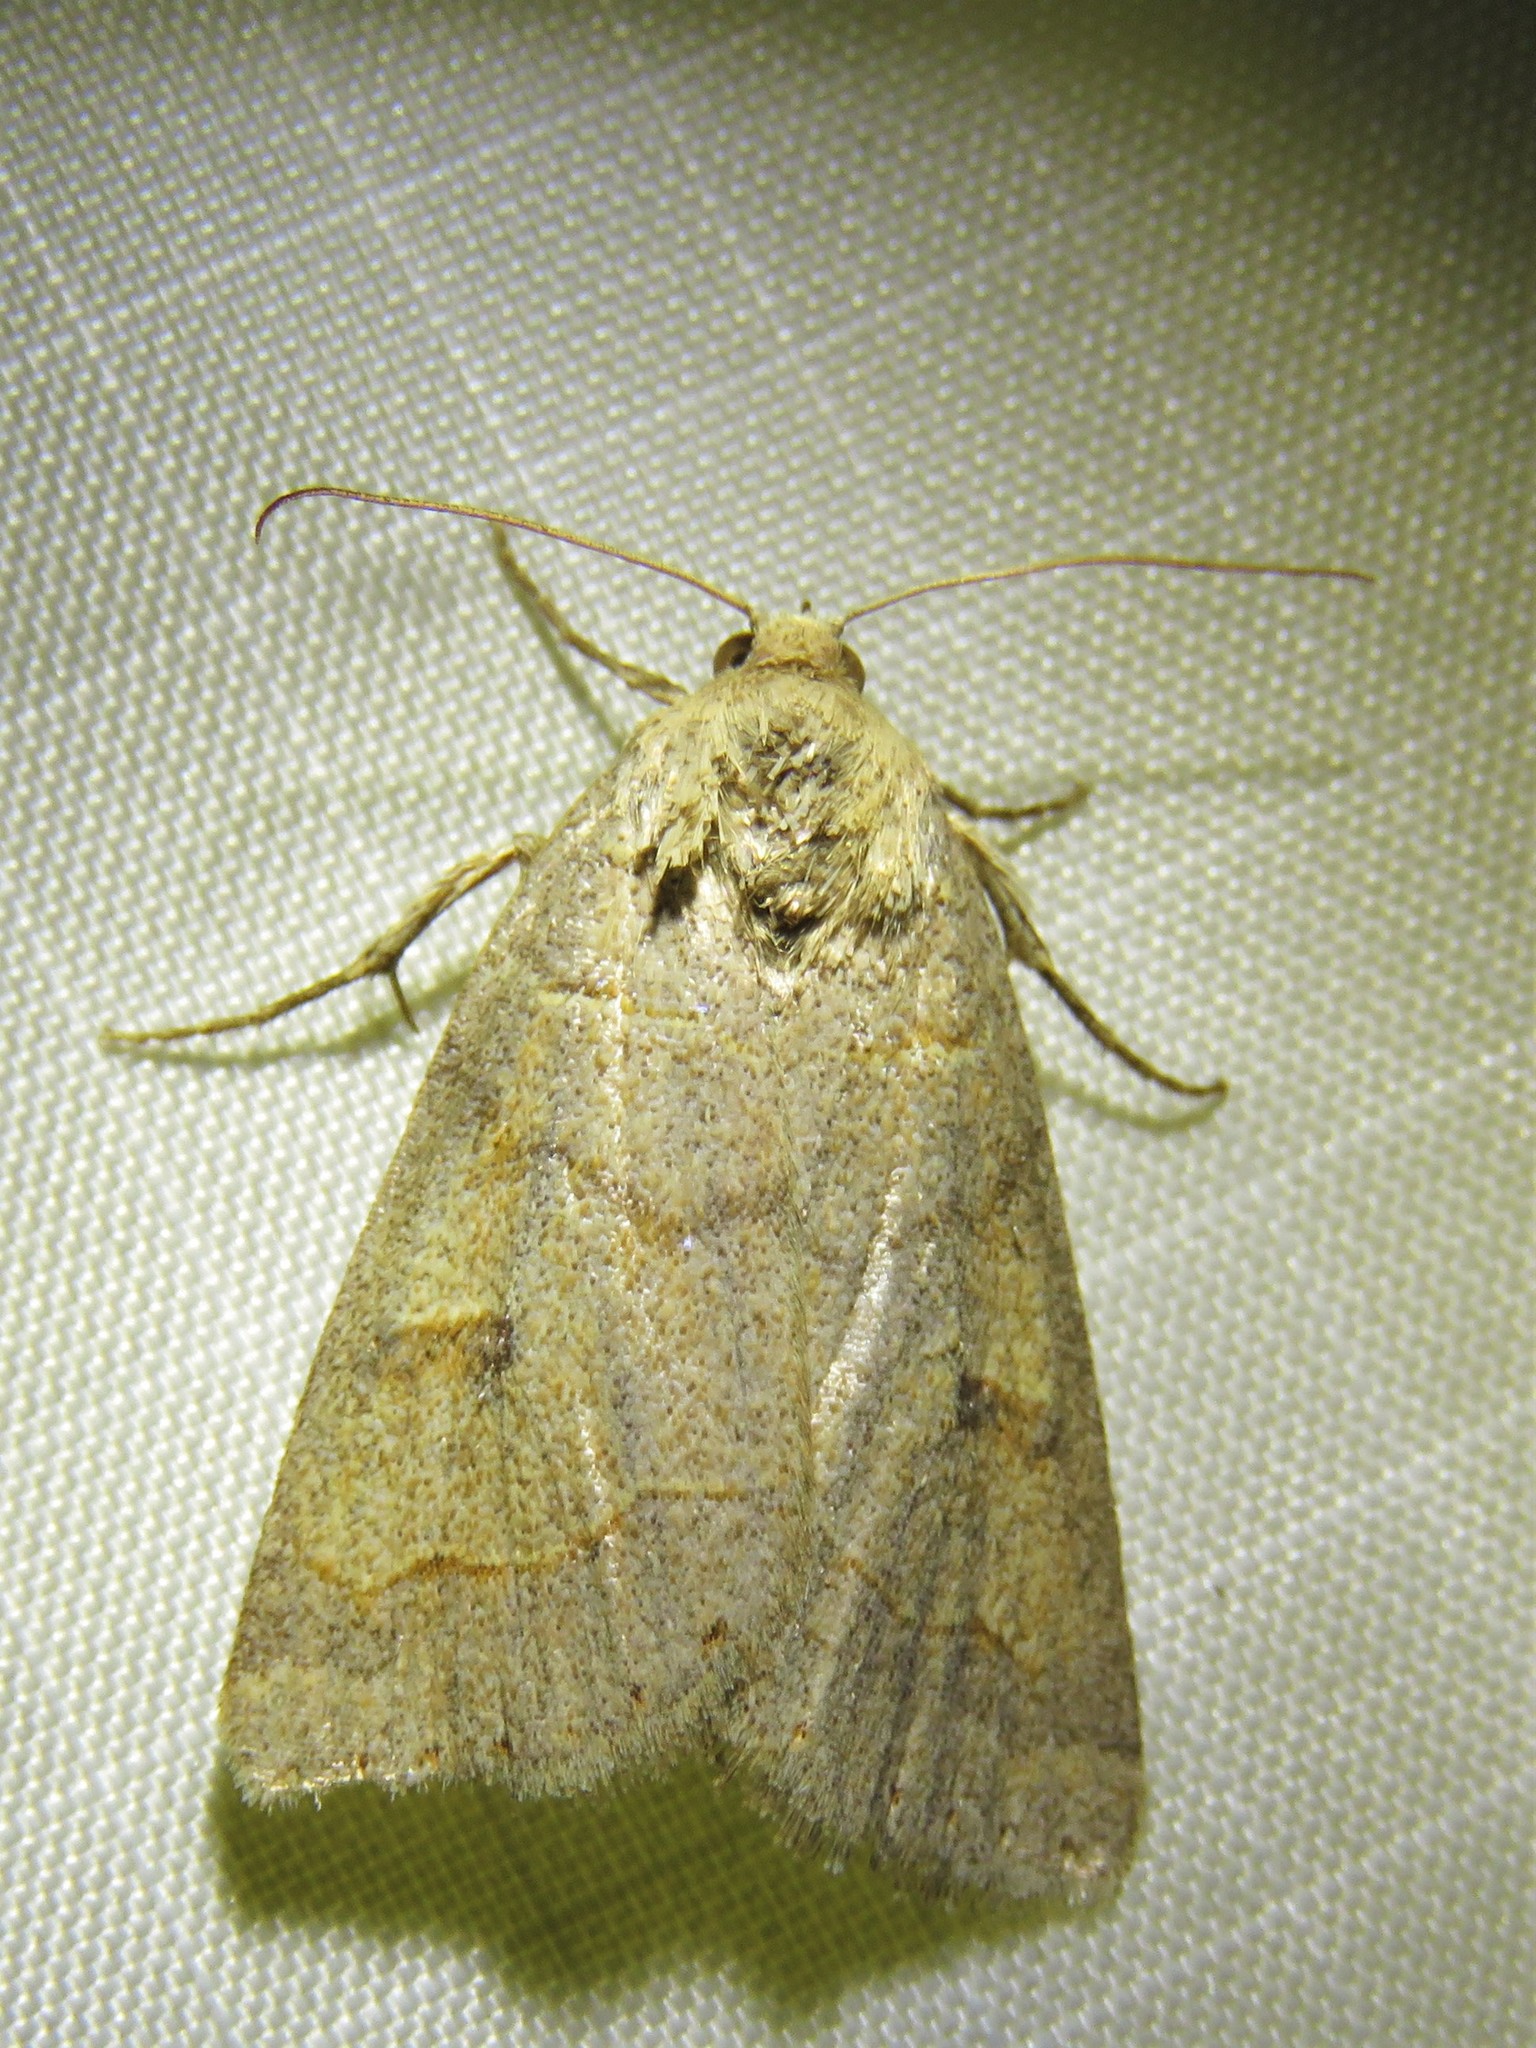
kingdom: Animalia
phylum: Arthropoda
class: Insecta
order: Lepidoptera
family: Erebidae
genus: Phoberia
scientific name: Phoberia atomaris
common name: Common oak moth
